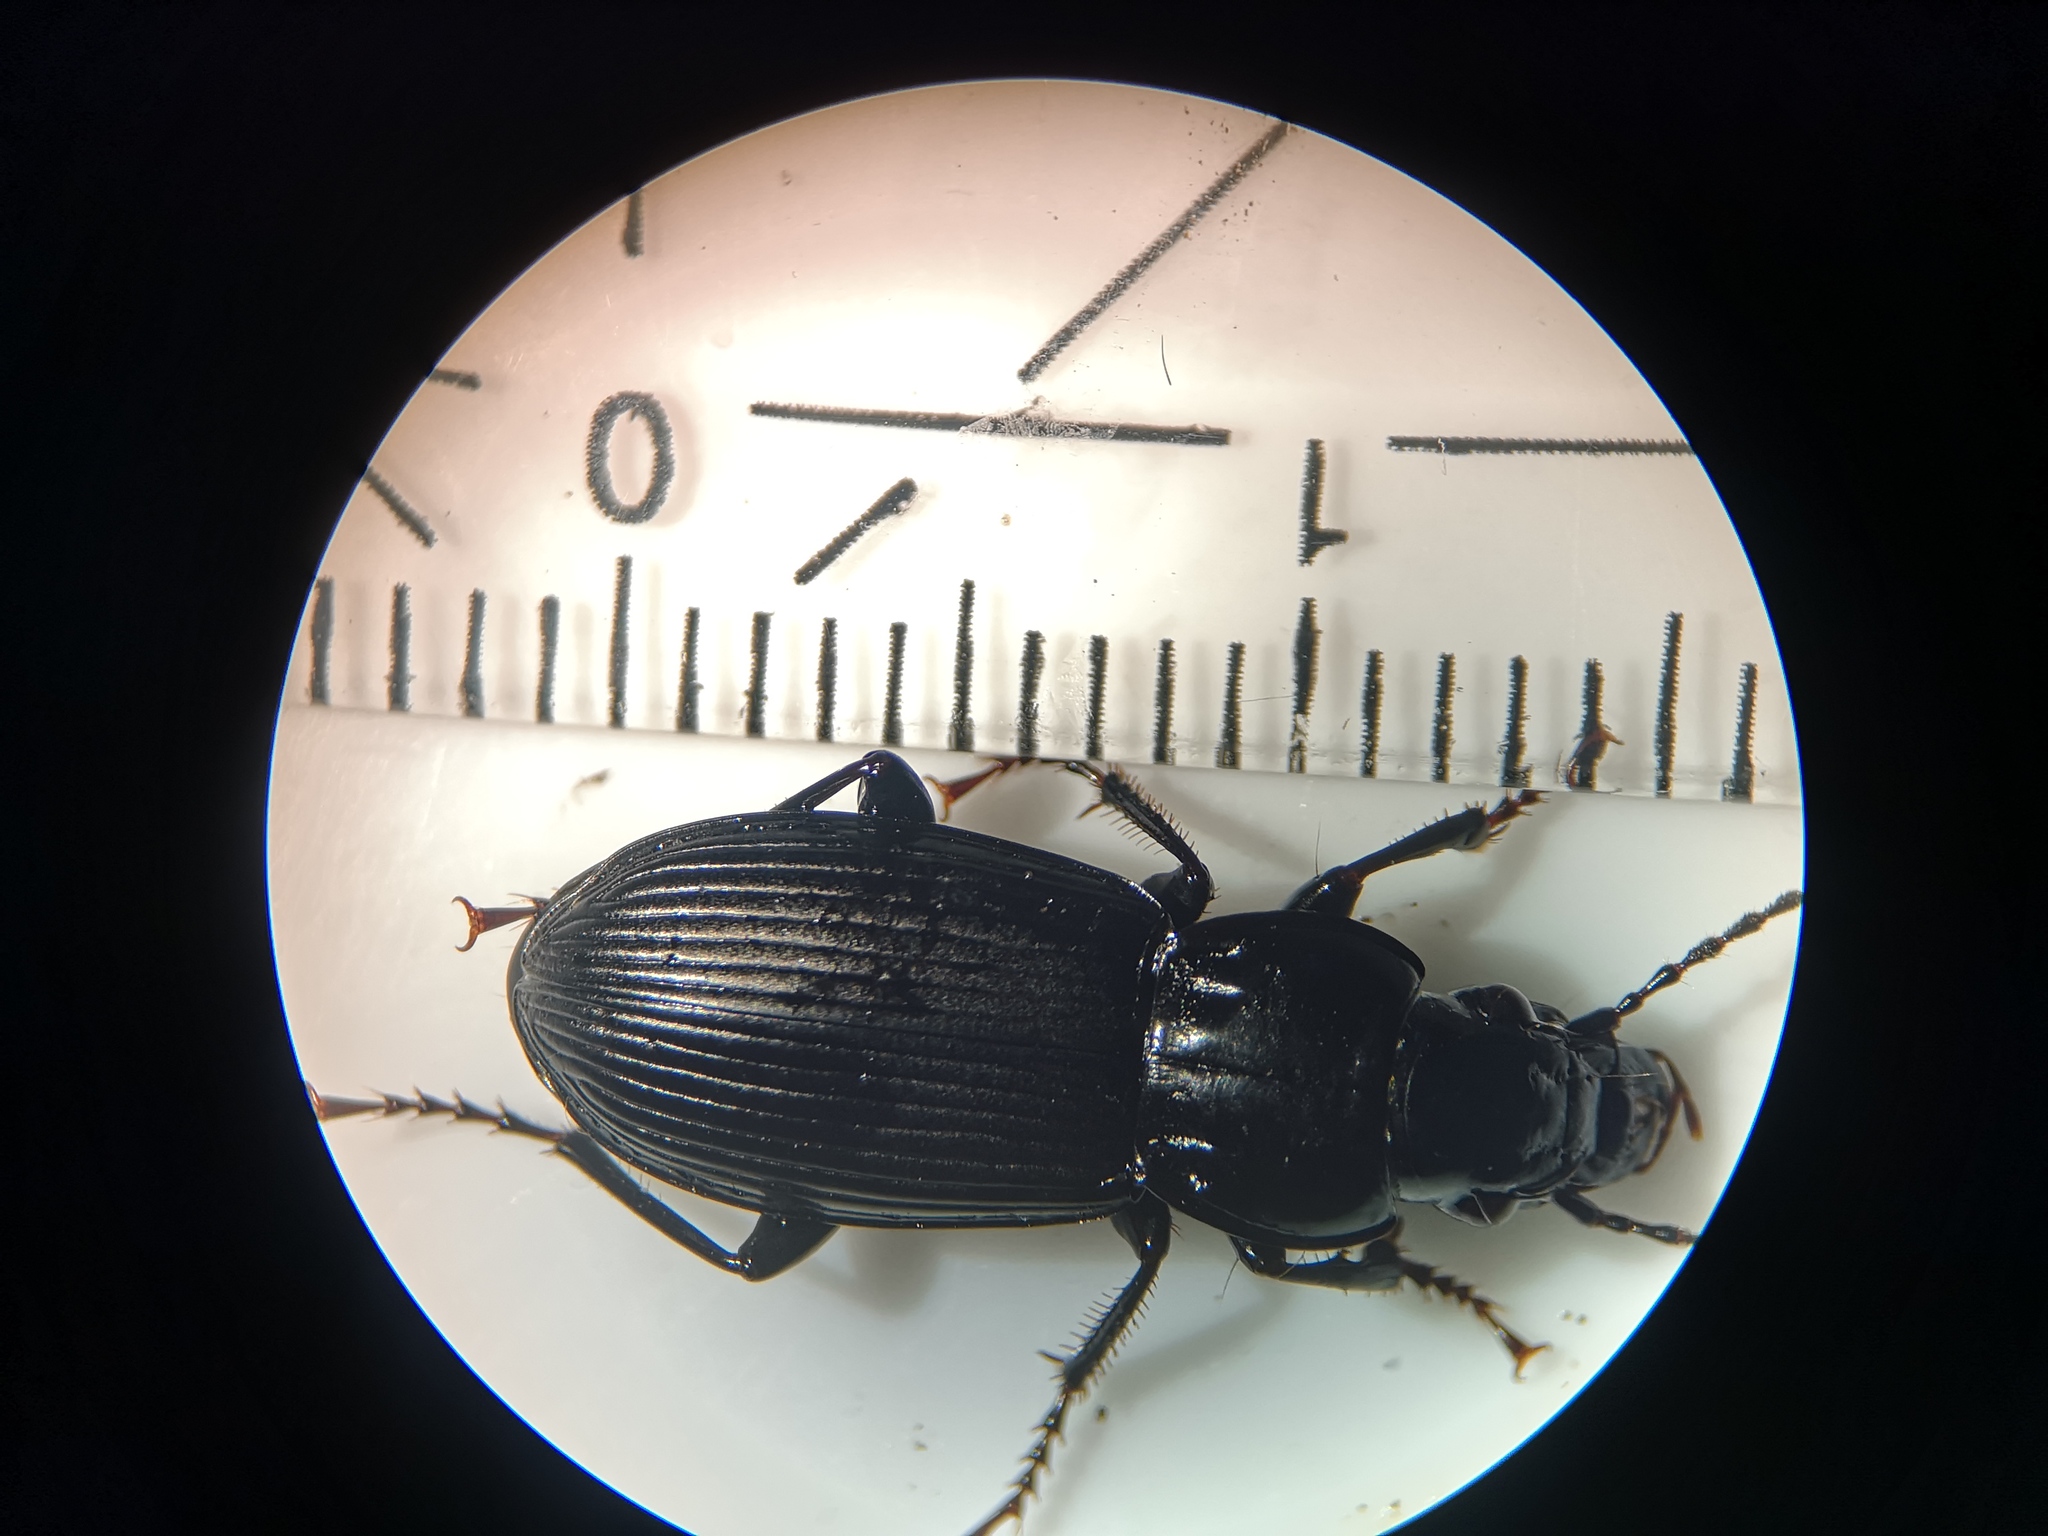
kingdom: Animalia
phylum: Arthropoda
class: Insecta
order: Coleoptera
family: Carabidae
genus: Pterostichus
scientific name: Pterostichus melanarius
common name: European dark harp ground beetle
